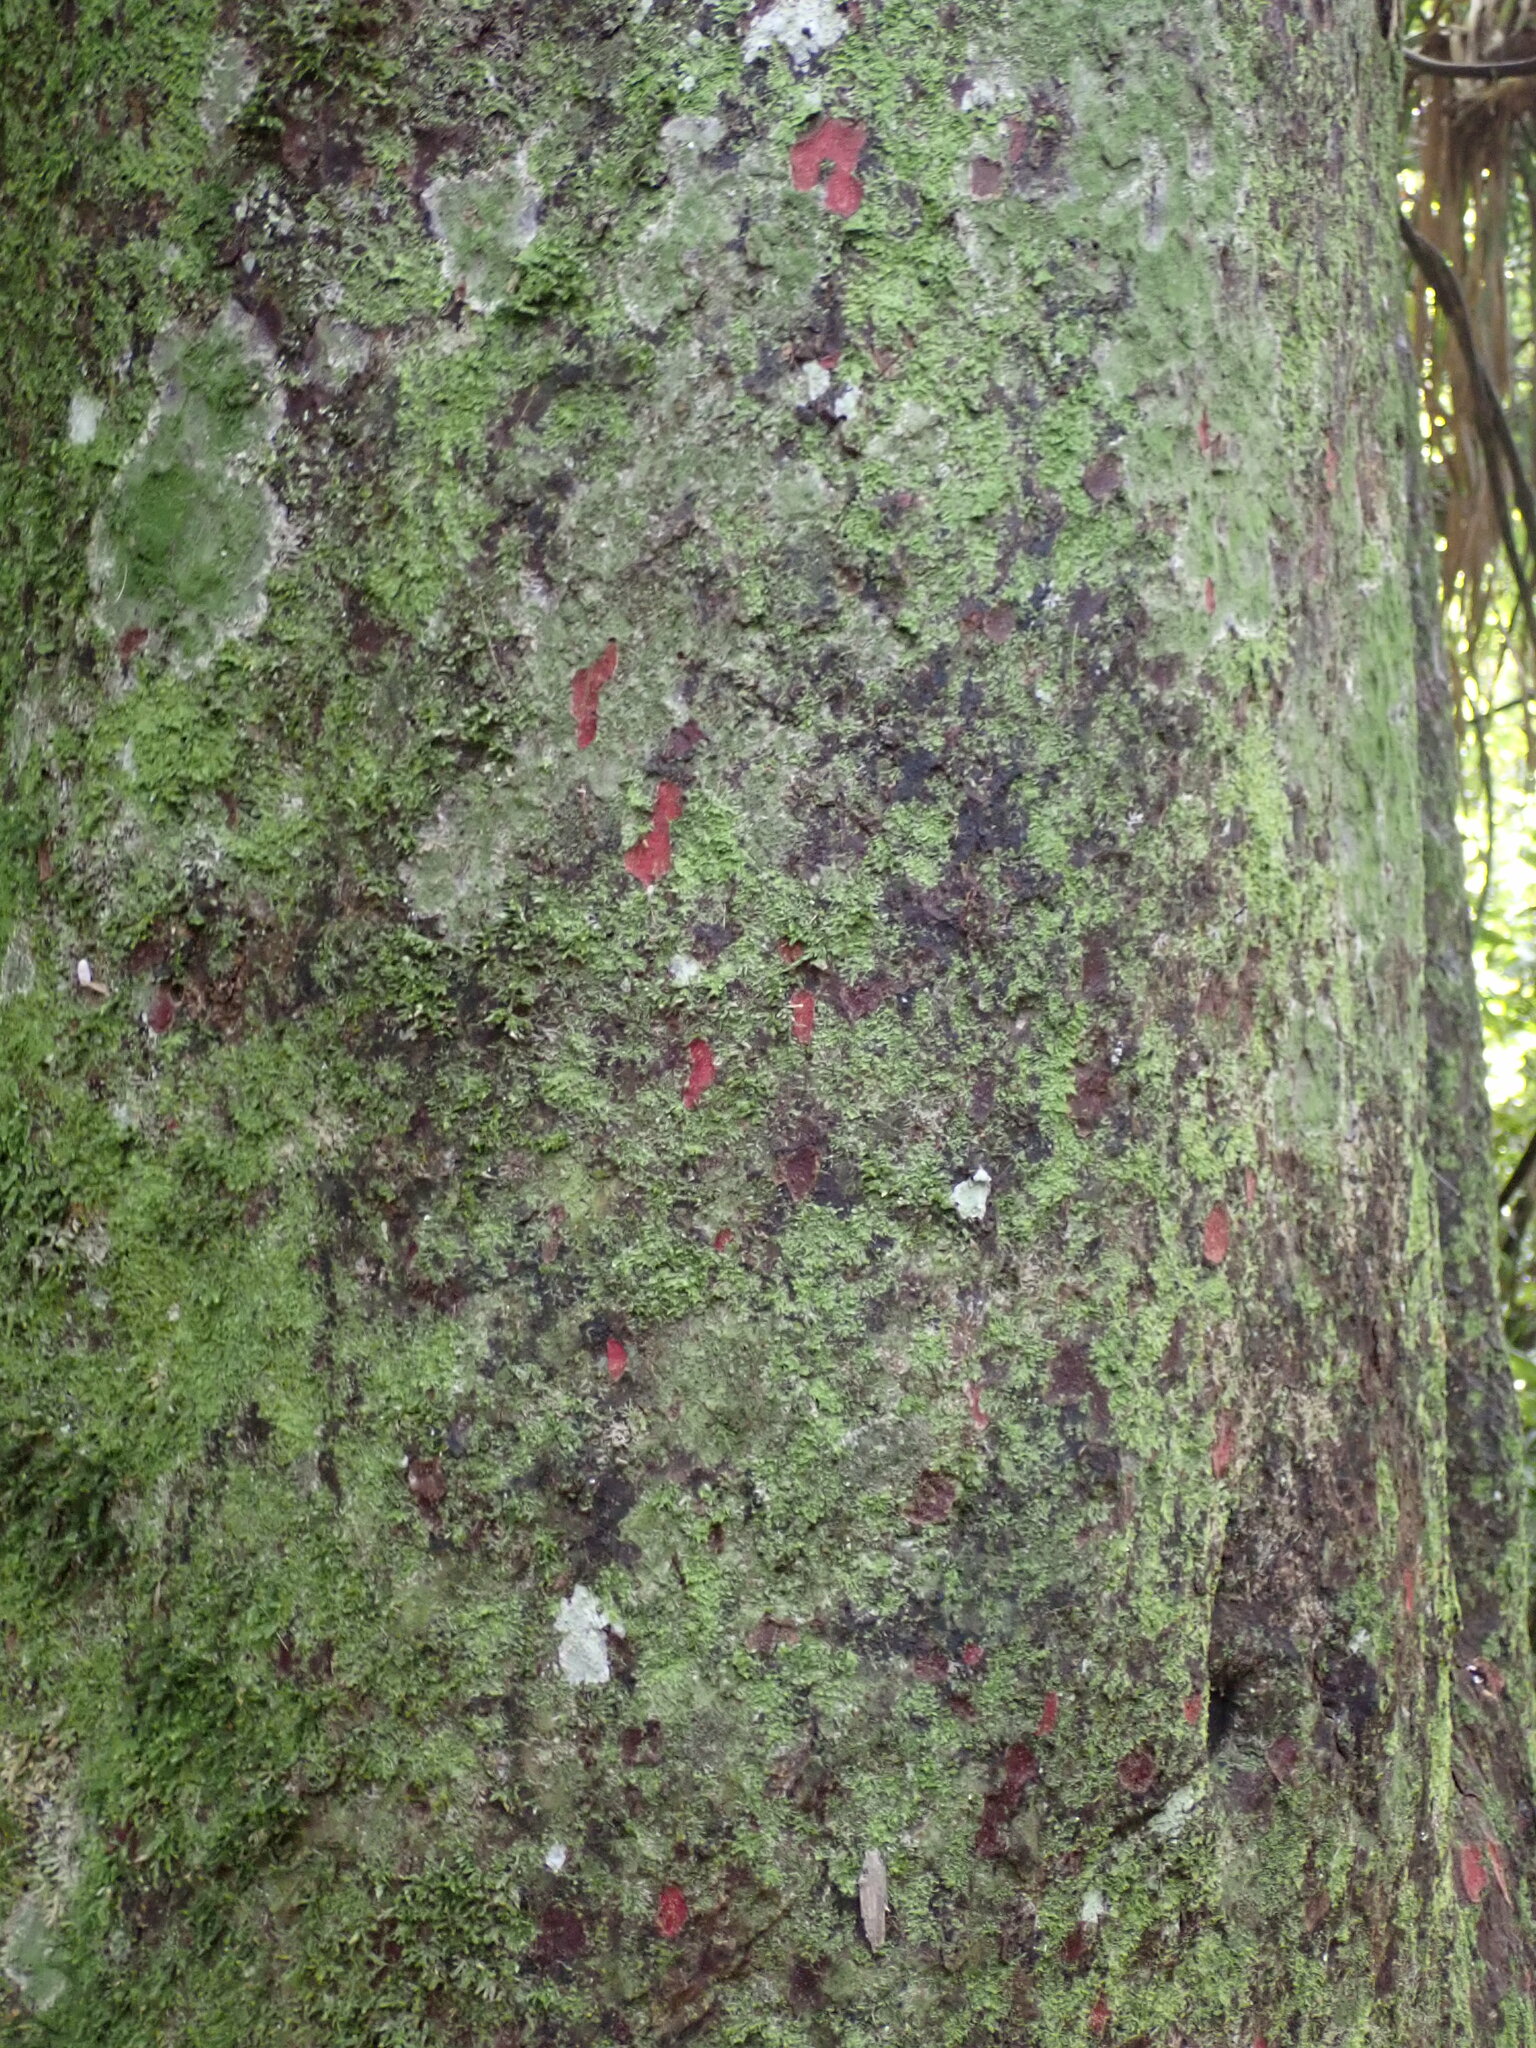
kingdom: Plantae
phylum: Tracheophyta
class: Pinopsida
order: Pinales
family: Podocarpaceae
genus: Prumnopitys
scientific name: Prumnopitys taxifolia
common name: Matai
